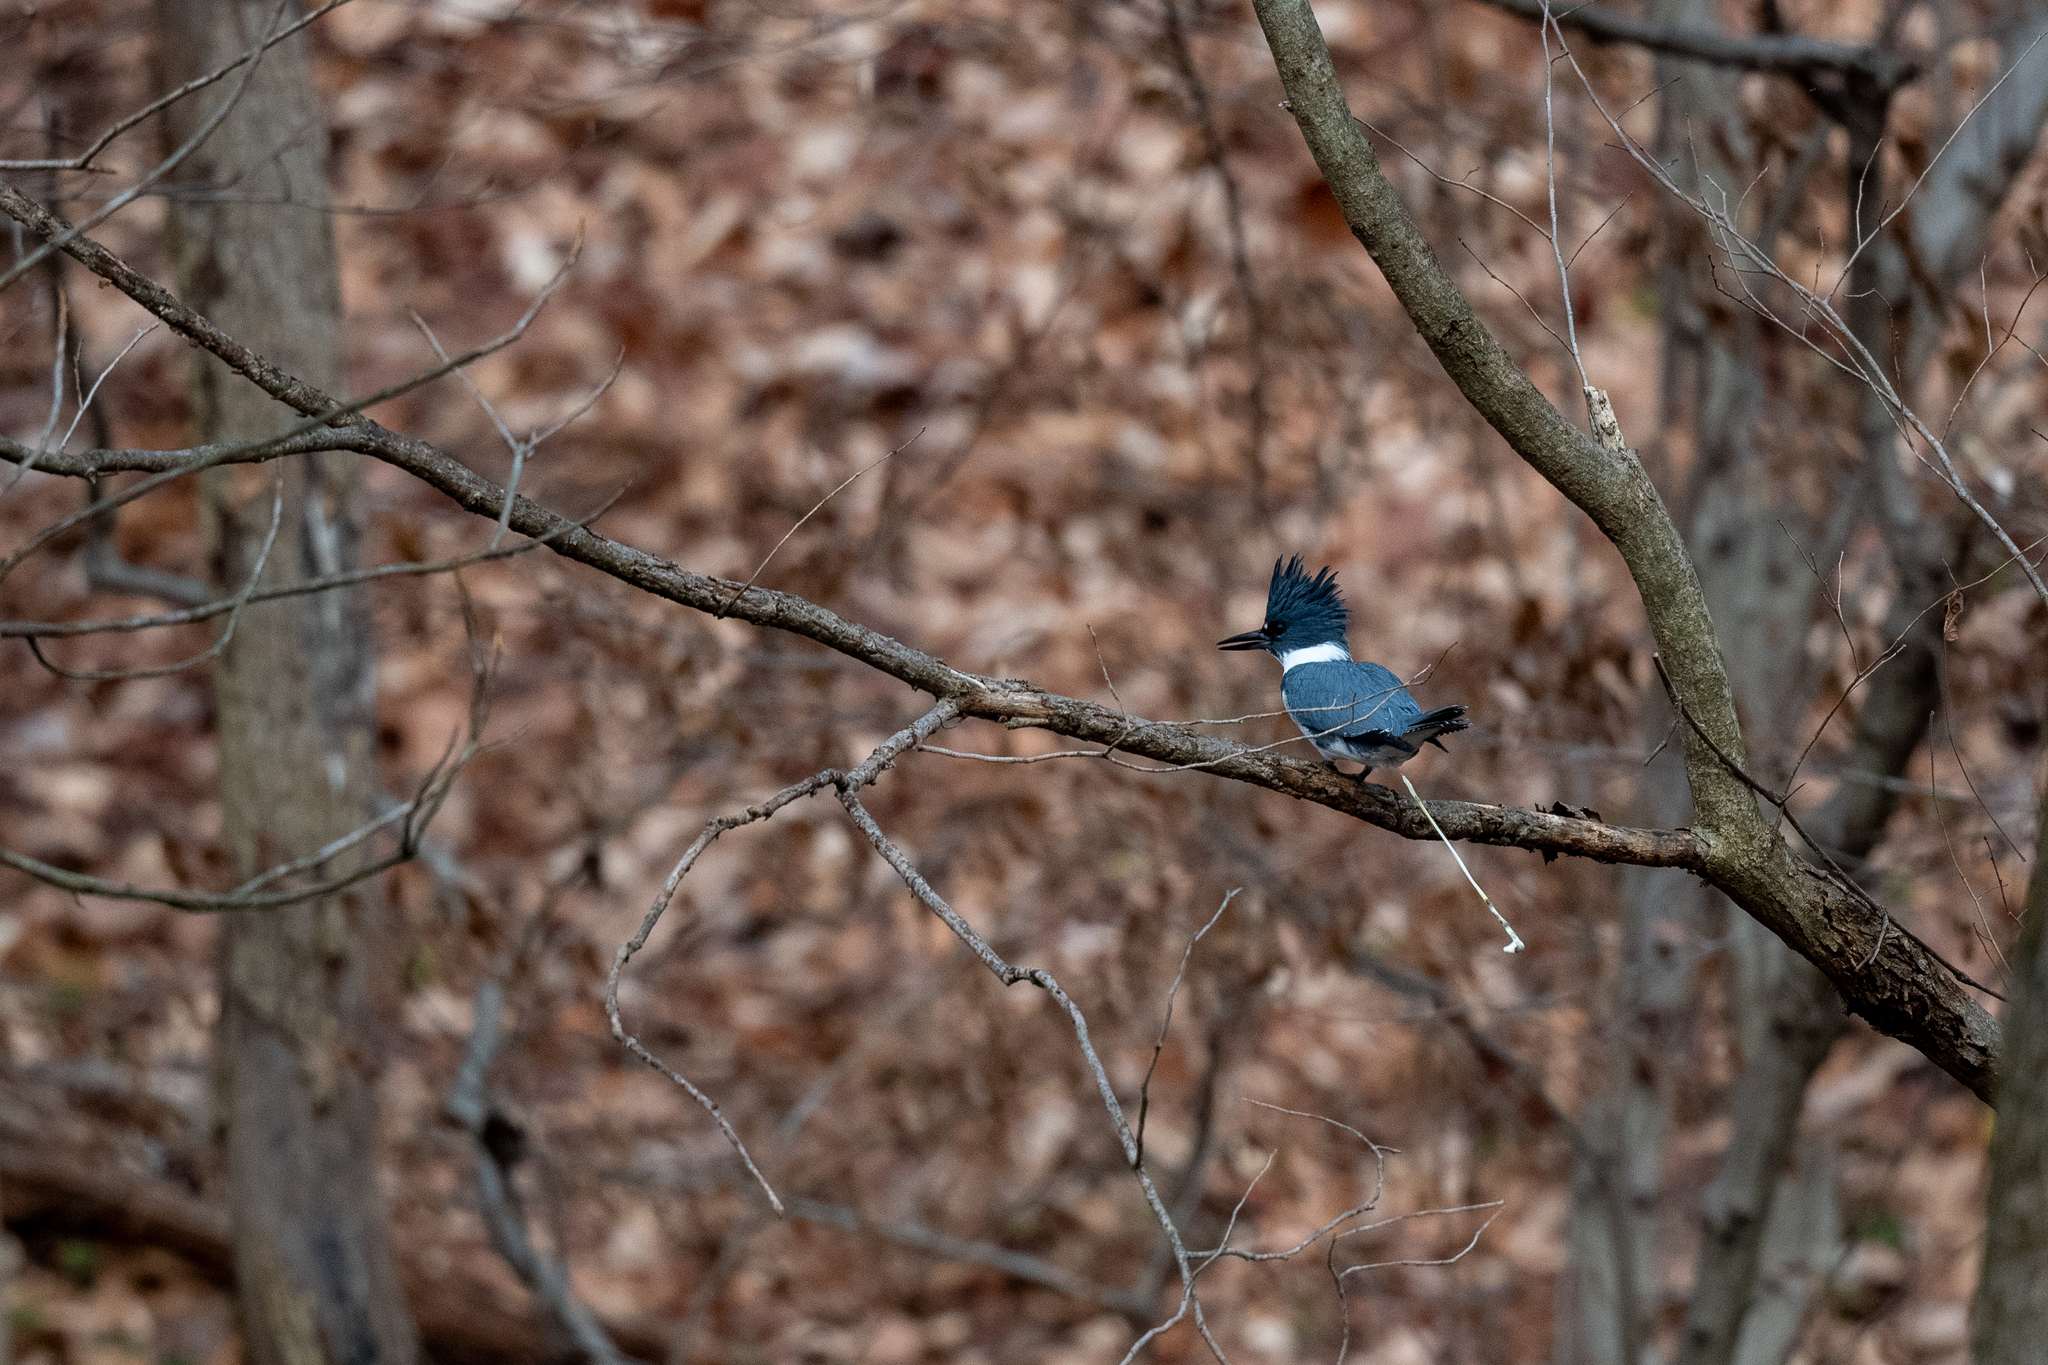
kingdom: Animalia
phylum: Chordata
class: Aves
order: Coraciiformes
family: Alcedinidae
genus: Megaceryle
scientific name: Megaceryle alcyon
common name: Belted kingfisher
